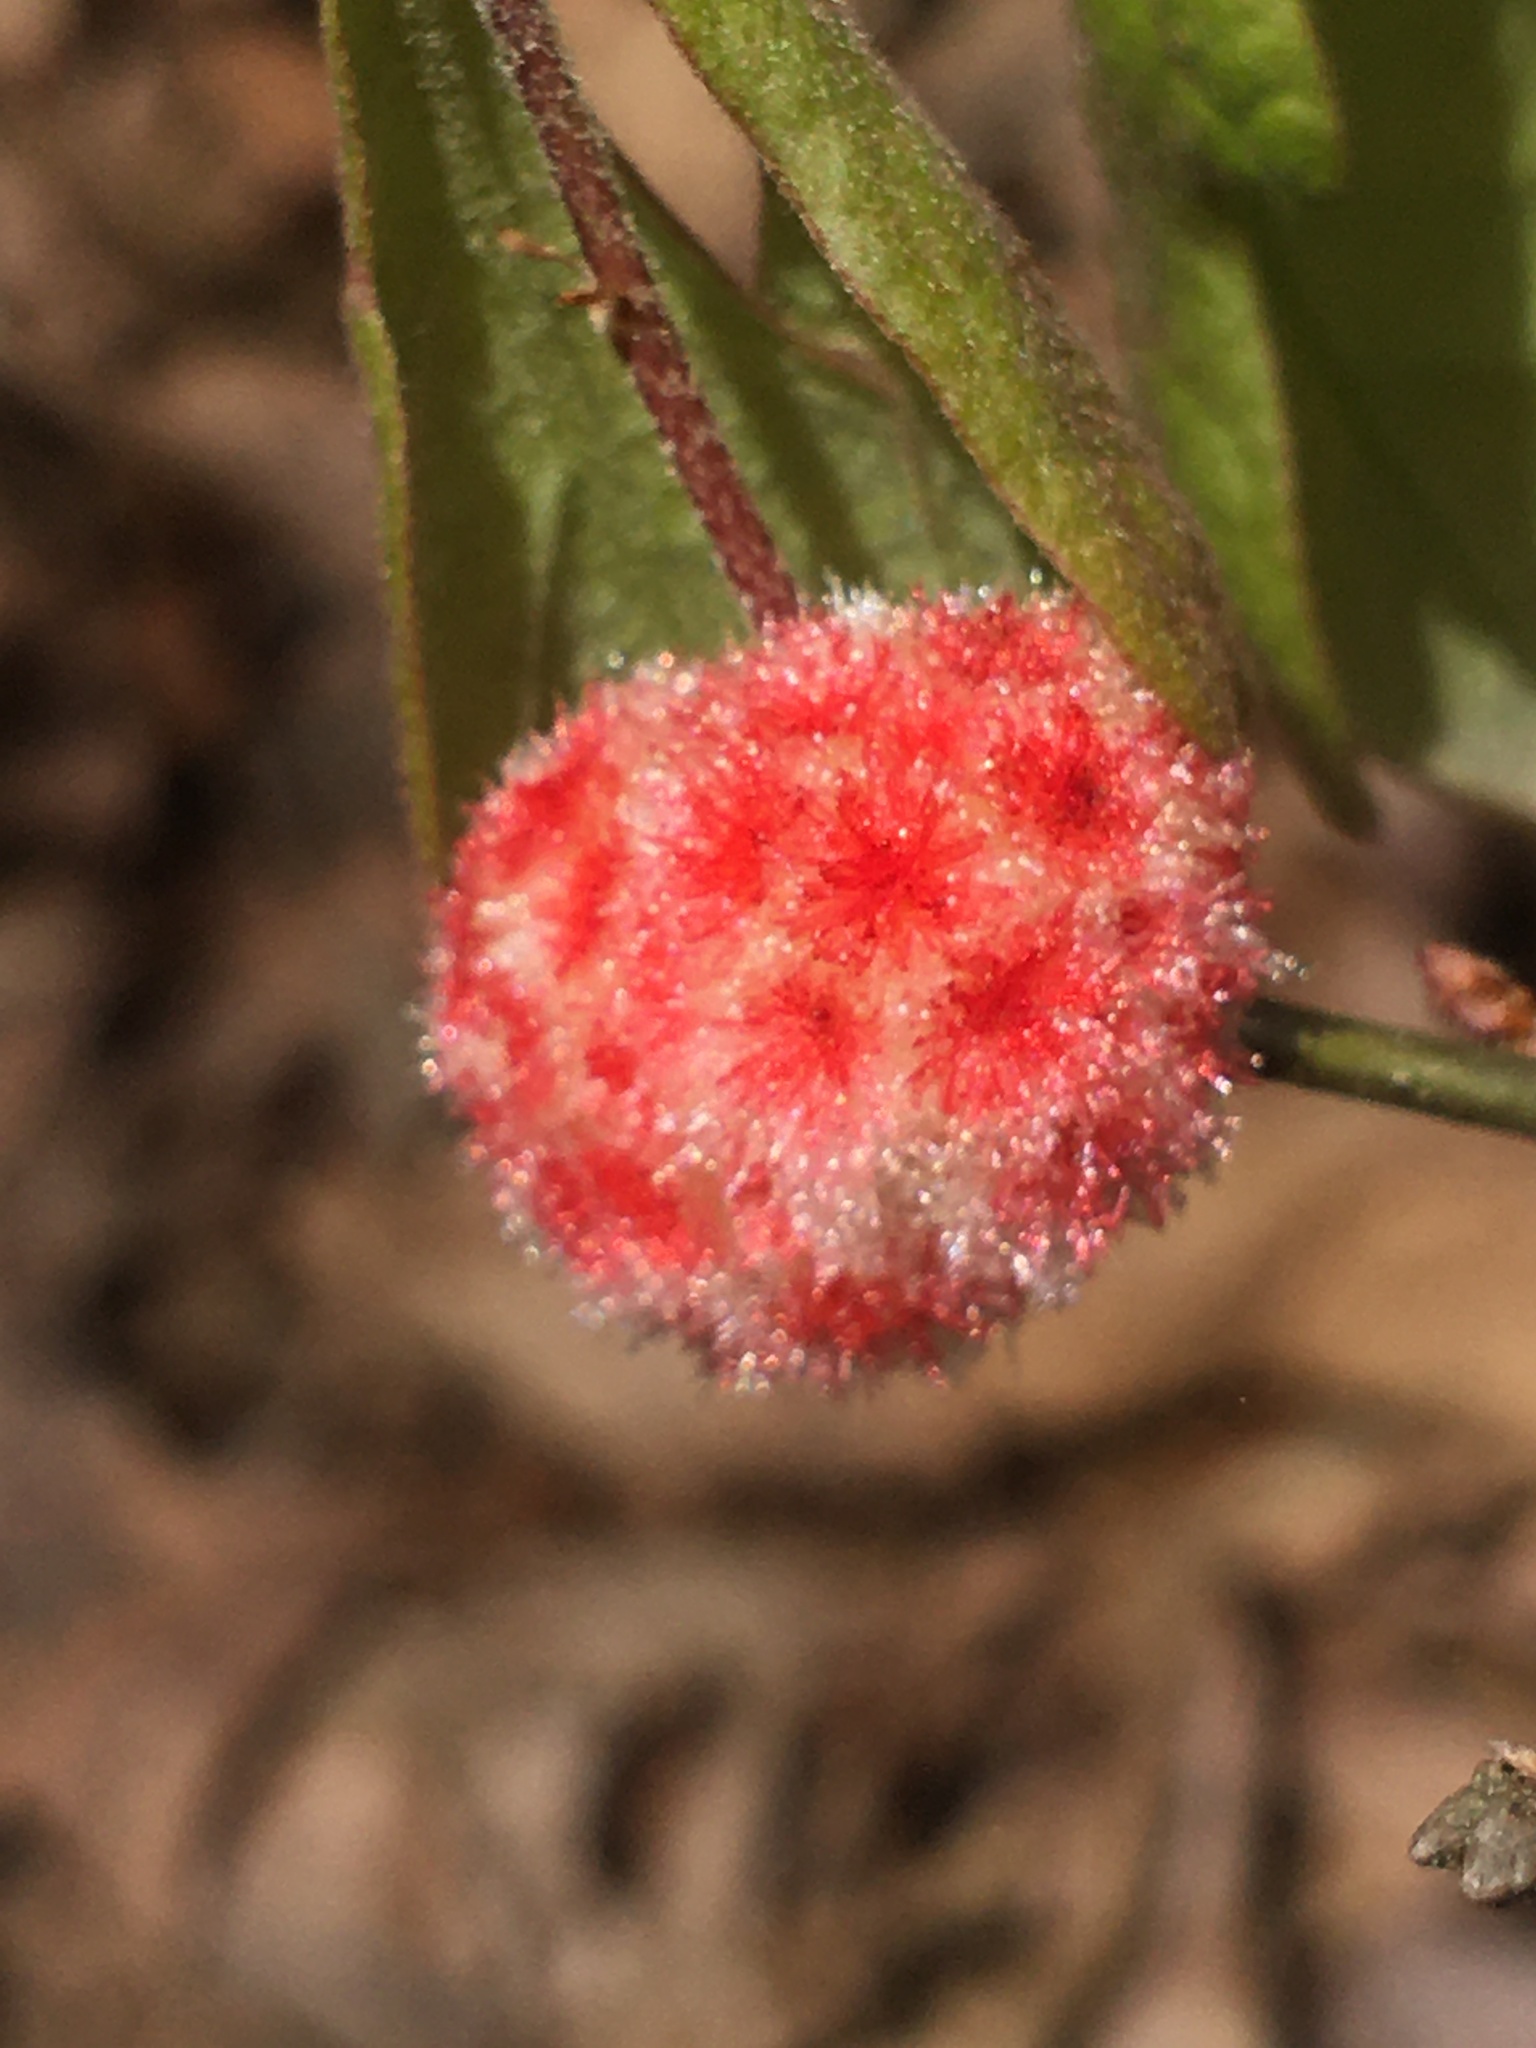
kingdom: Animalia
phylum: Arthropoda
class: Insecta
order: Hymenoptera
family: Cynipidae
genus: Callirhytis
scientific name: Callirhytis
